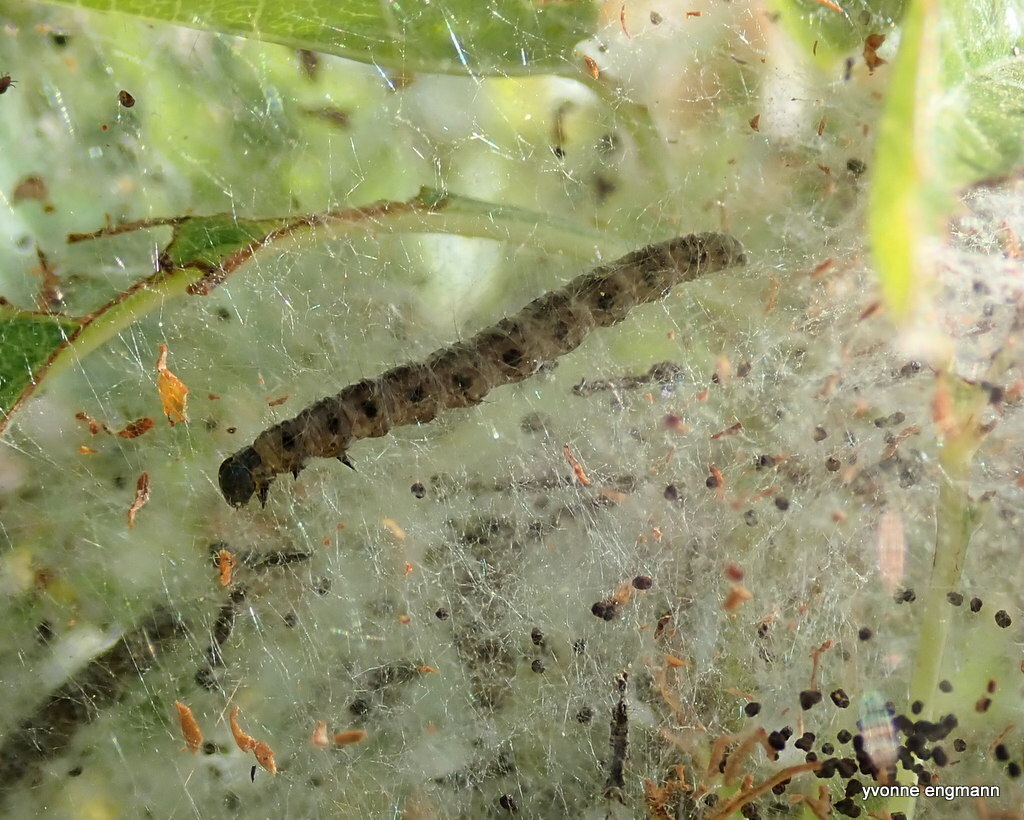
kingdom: Animalia
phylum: Arthropoda
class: Insecta
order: Lepidoptera
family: Yponomeutidae
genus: Yponomeuta
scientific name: Yponomeuta padella
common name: Orchard ermine
